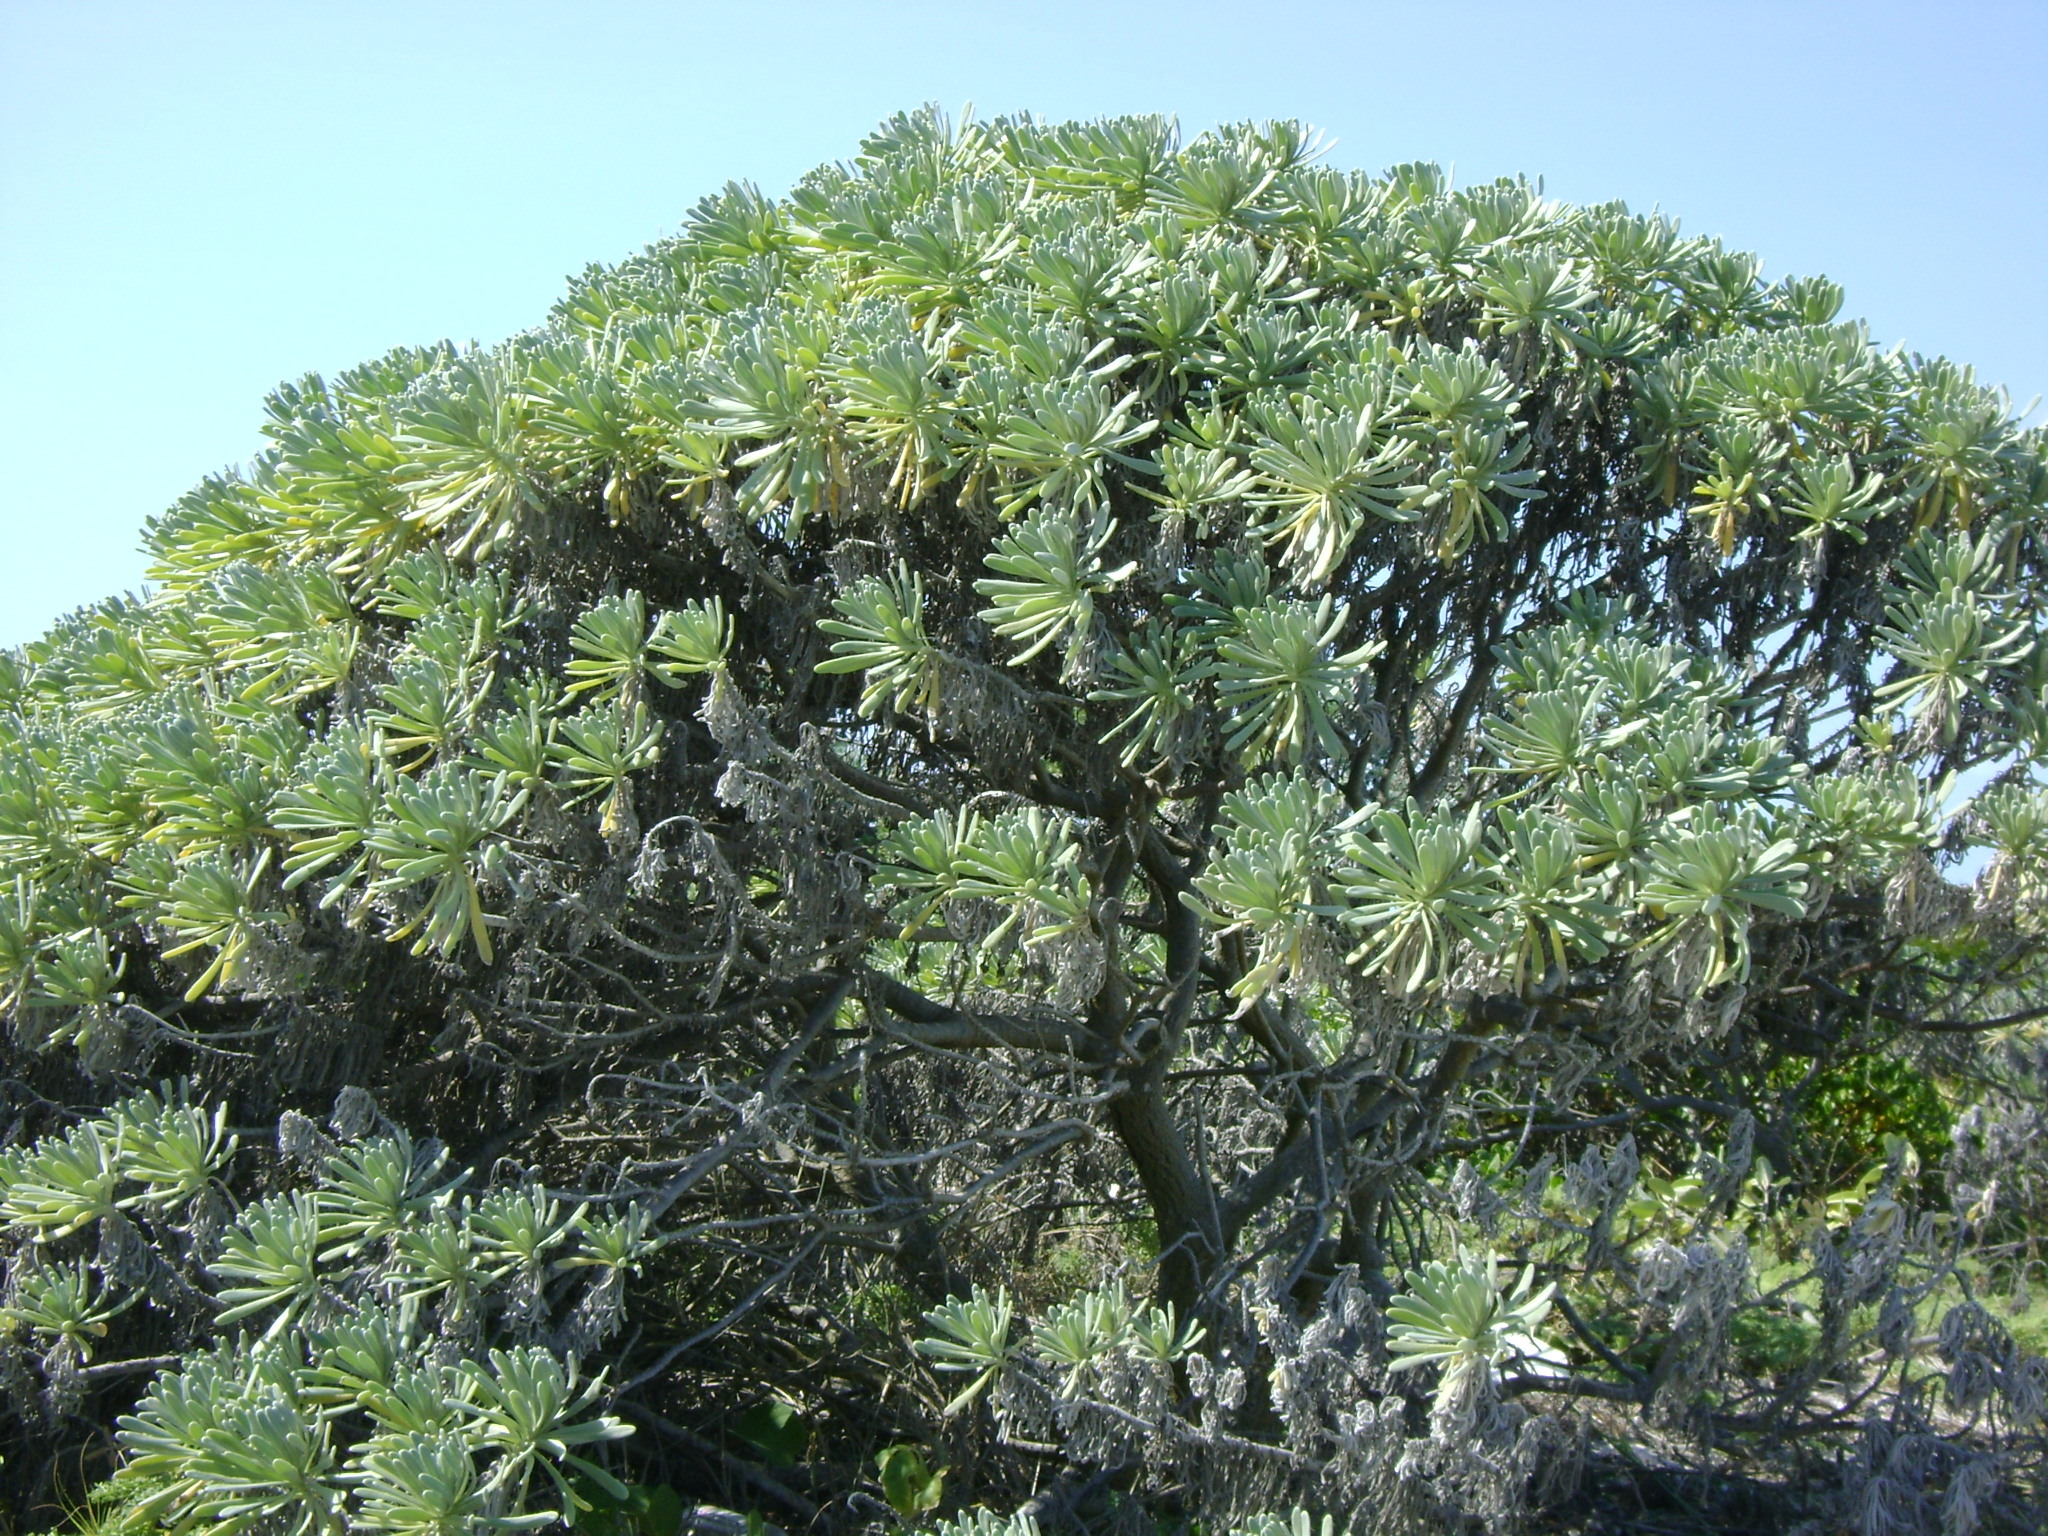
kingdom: Plantae
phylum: Tracheophyta
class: Magnoliopsida
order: Boraginales
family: Heliotropiaceae
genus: Tournefortia
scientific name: Tournefortia gnaphalodes
